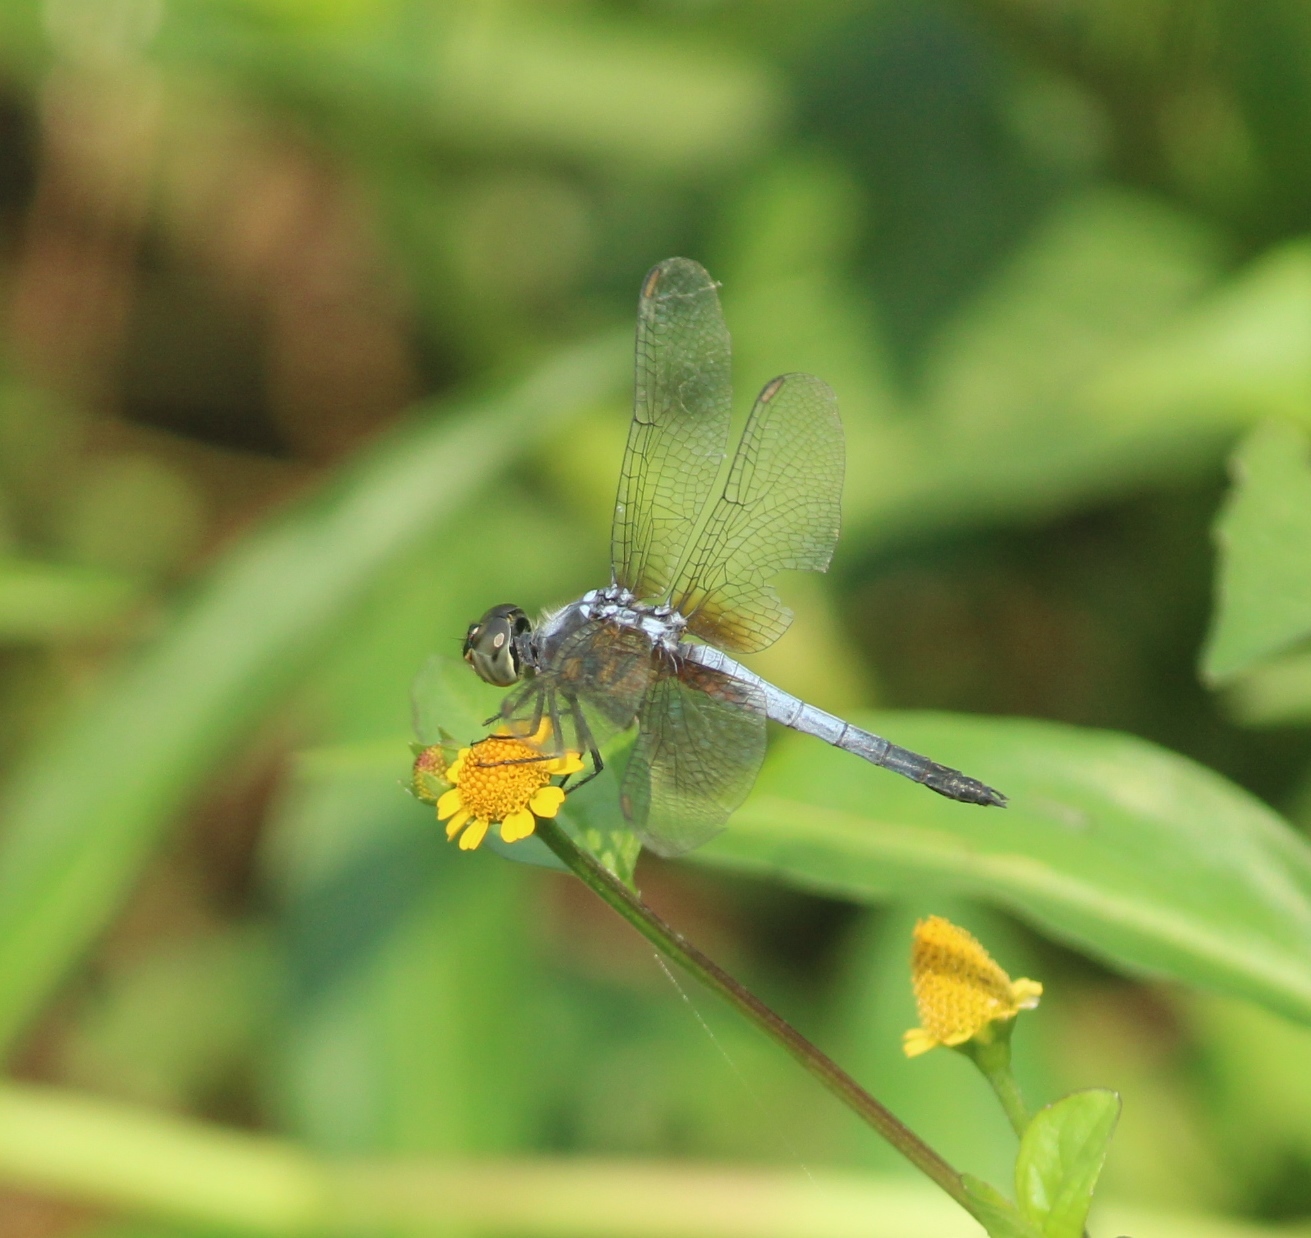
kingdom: Animalia
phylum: Arthropoda
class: Insecta
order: Odonata
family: Libellulidae
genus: Brachydiplax
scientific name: Brachydiplax chalybea
